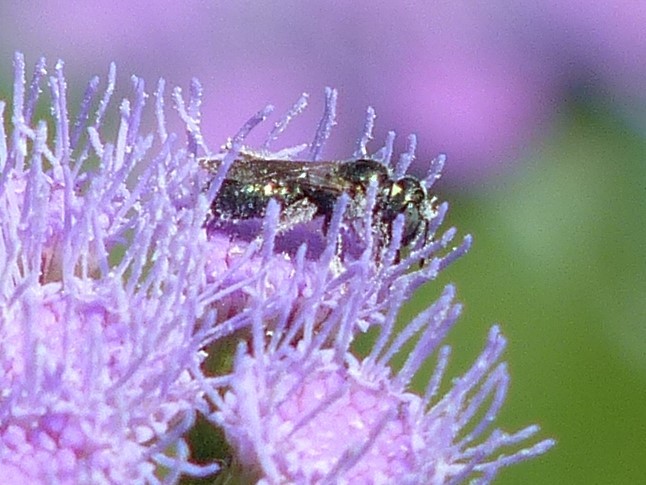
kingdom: Animalia
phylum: Arthropoda
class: Insecta
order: Hymenoptera
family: Apidae
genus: Zadontomerus
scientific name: Zadontomerus
